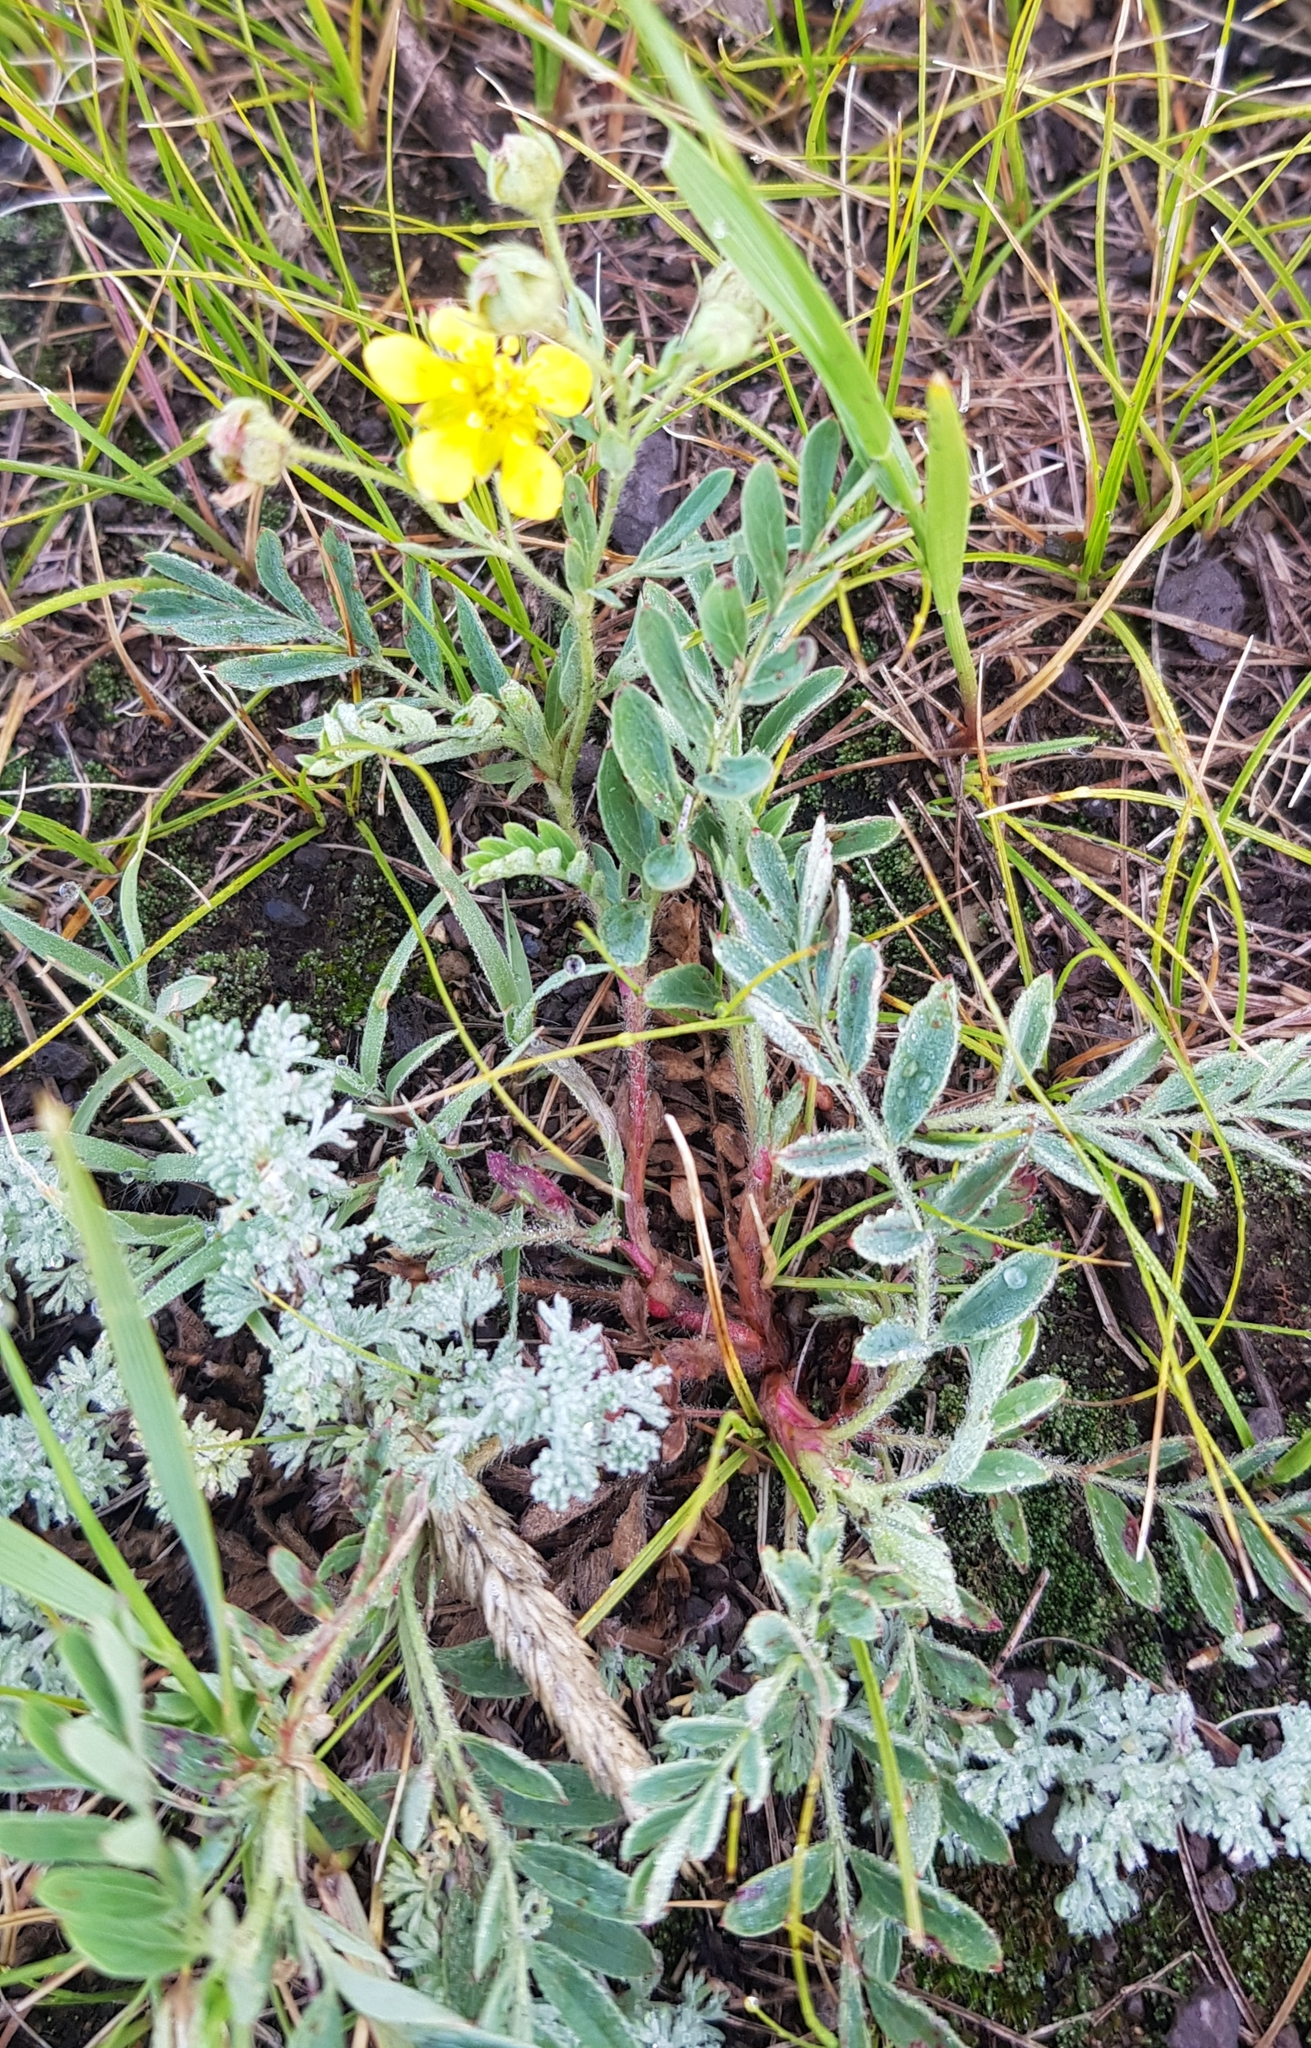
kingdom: Plantae
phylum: Tracheophyta
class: Magnoliopsida
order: Rosales
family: Rosaceae
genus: Sibbaldianthe
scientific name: Sibbaldianthe bifurca
